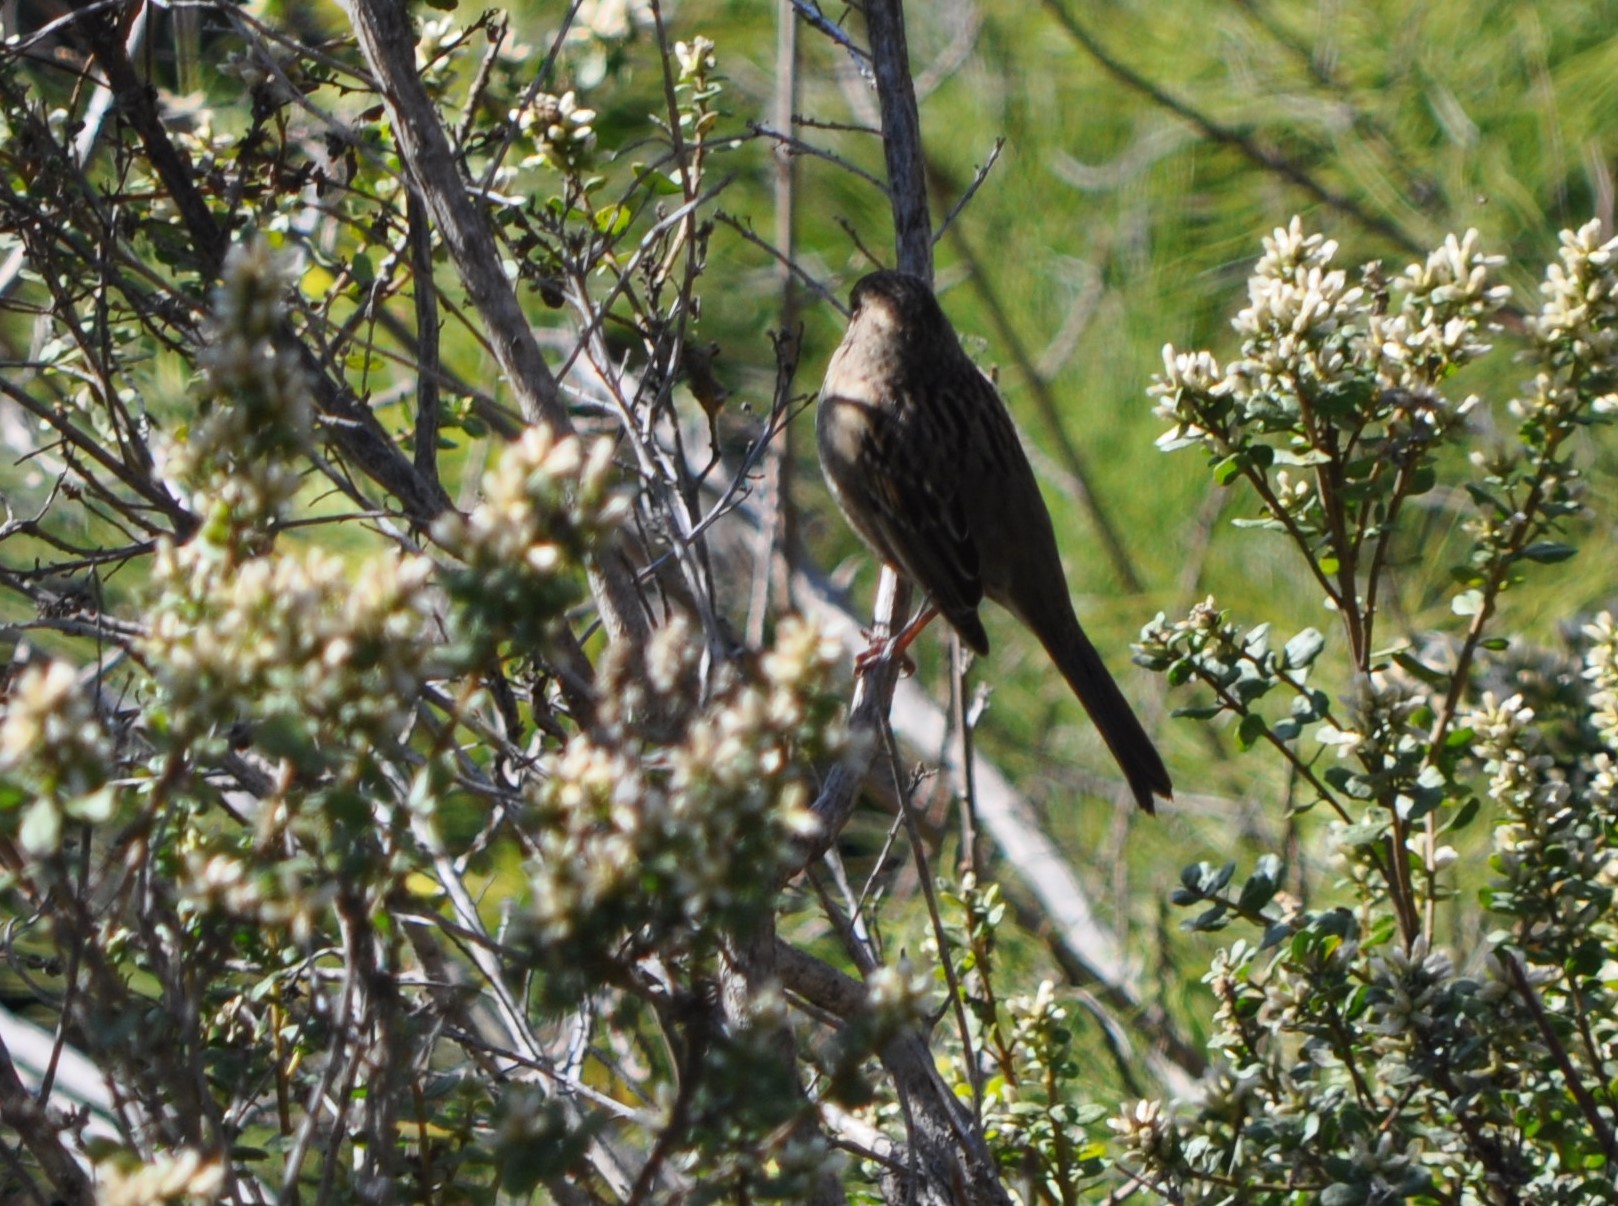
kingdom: Animalia
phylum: Chordata
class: Aves
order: Passeriformes
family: Passerellidae
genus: Zonotrichia
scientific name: Zonotrichia atricapilla
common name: Golden-crowned sparrow
